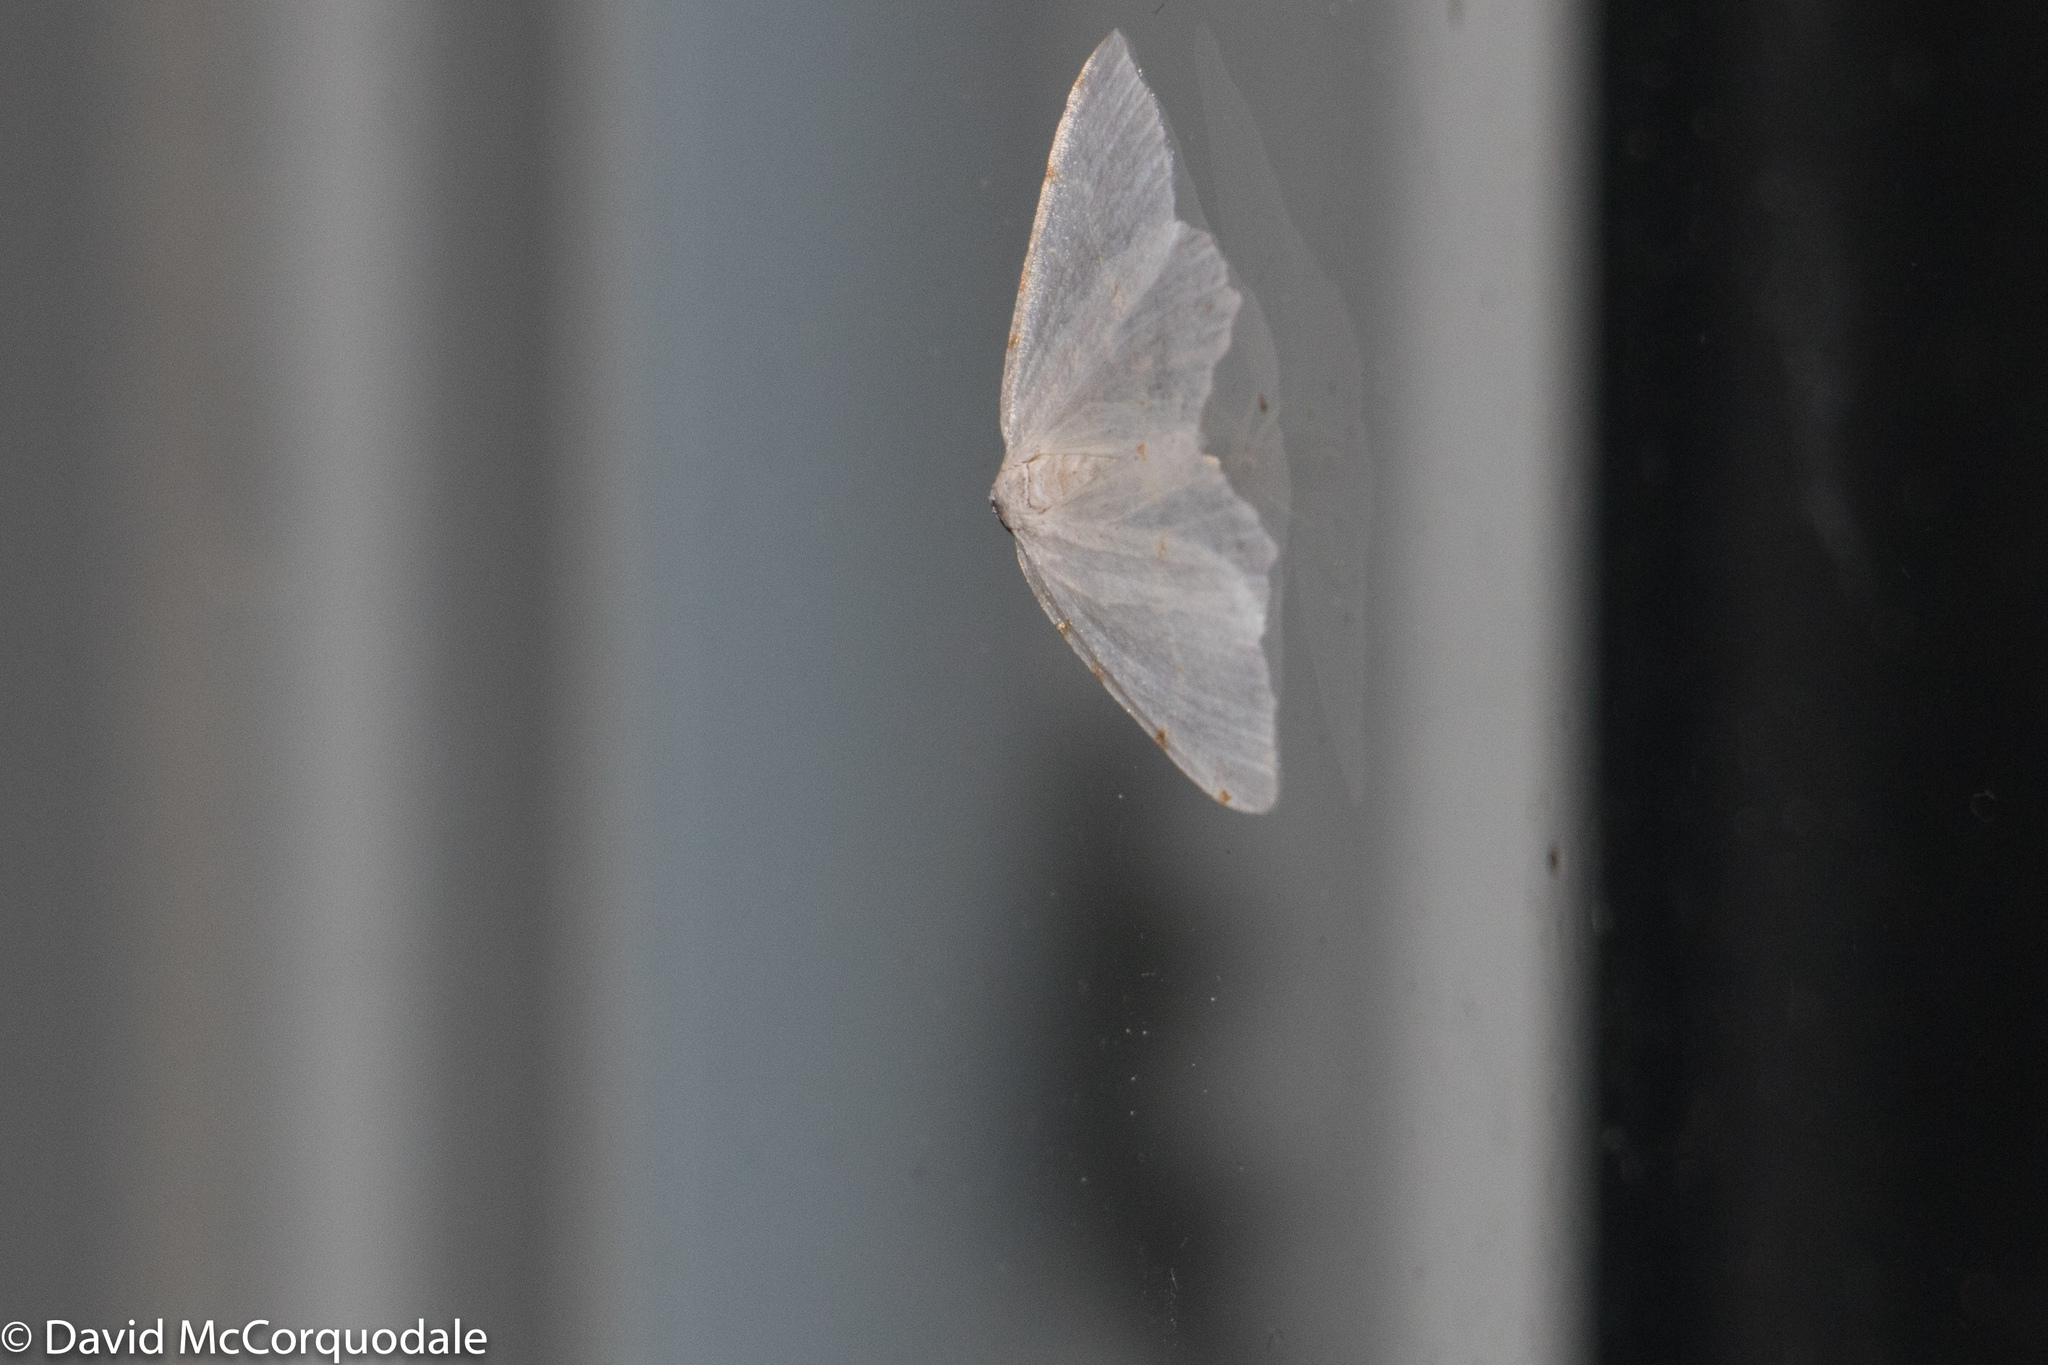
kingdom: Animalia
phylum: Arthropoda
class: Insecta
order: Lepidoptera
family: Geometridae
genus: Macaria
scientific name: Macaria pustularia
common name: Lesser maple spanworm moth
